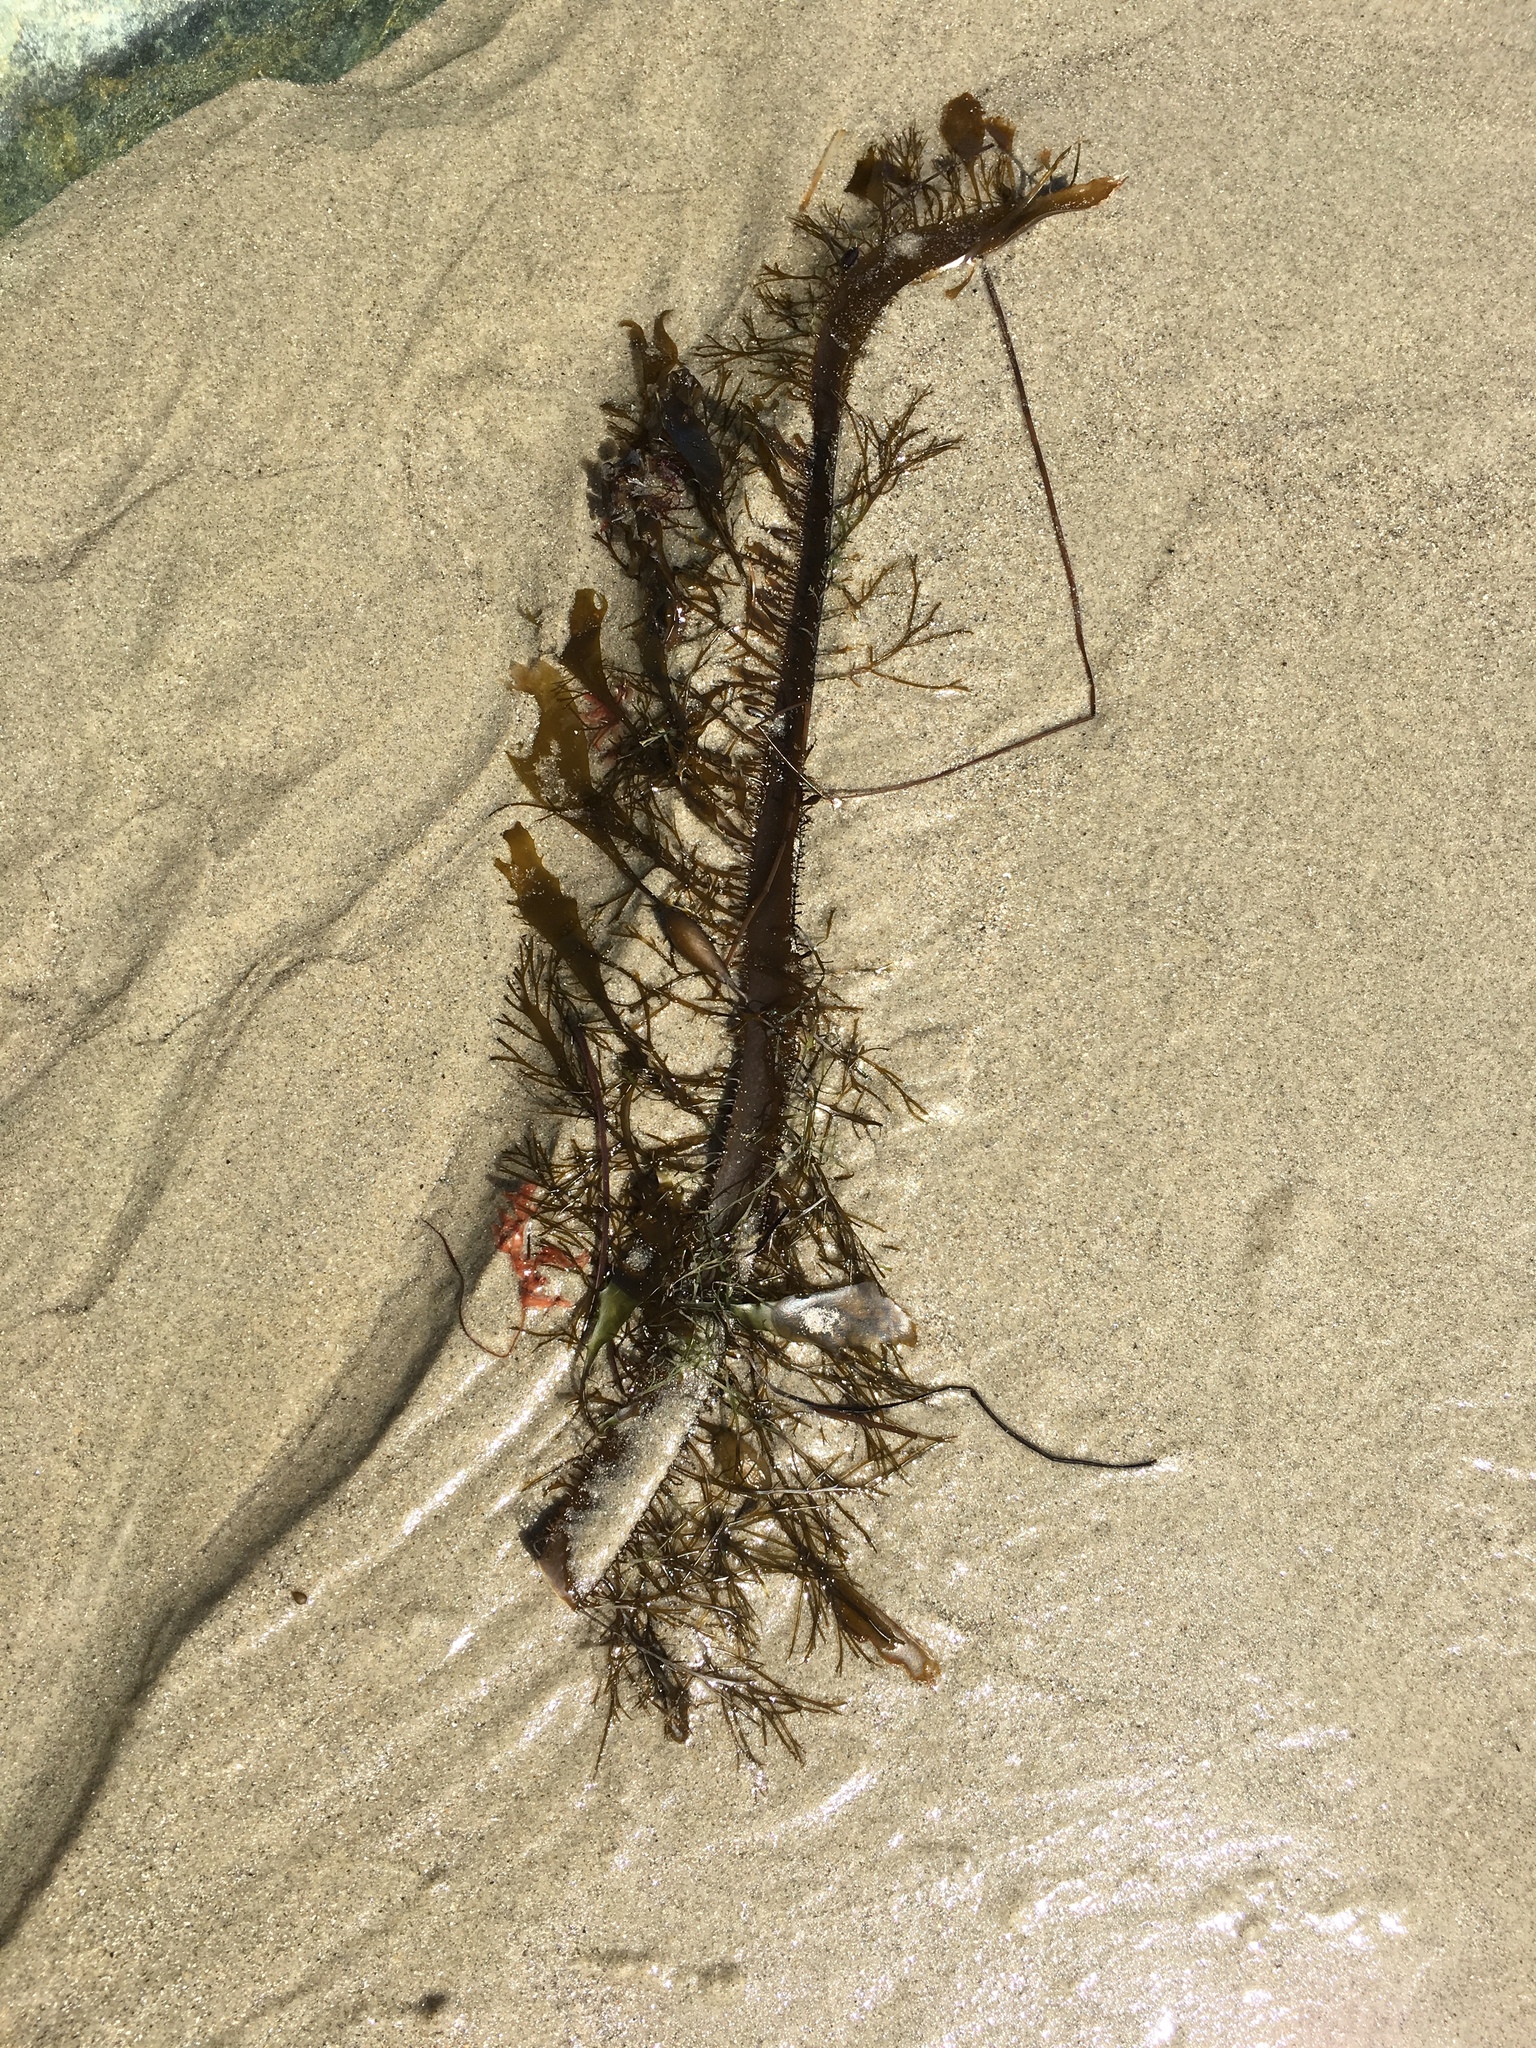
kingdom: Chromista
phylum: Ochrophyta
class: Phaeophyceae
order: Laminariales
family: Lessoniaceae
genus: Egregia
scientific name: Egregia menziesii
